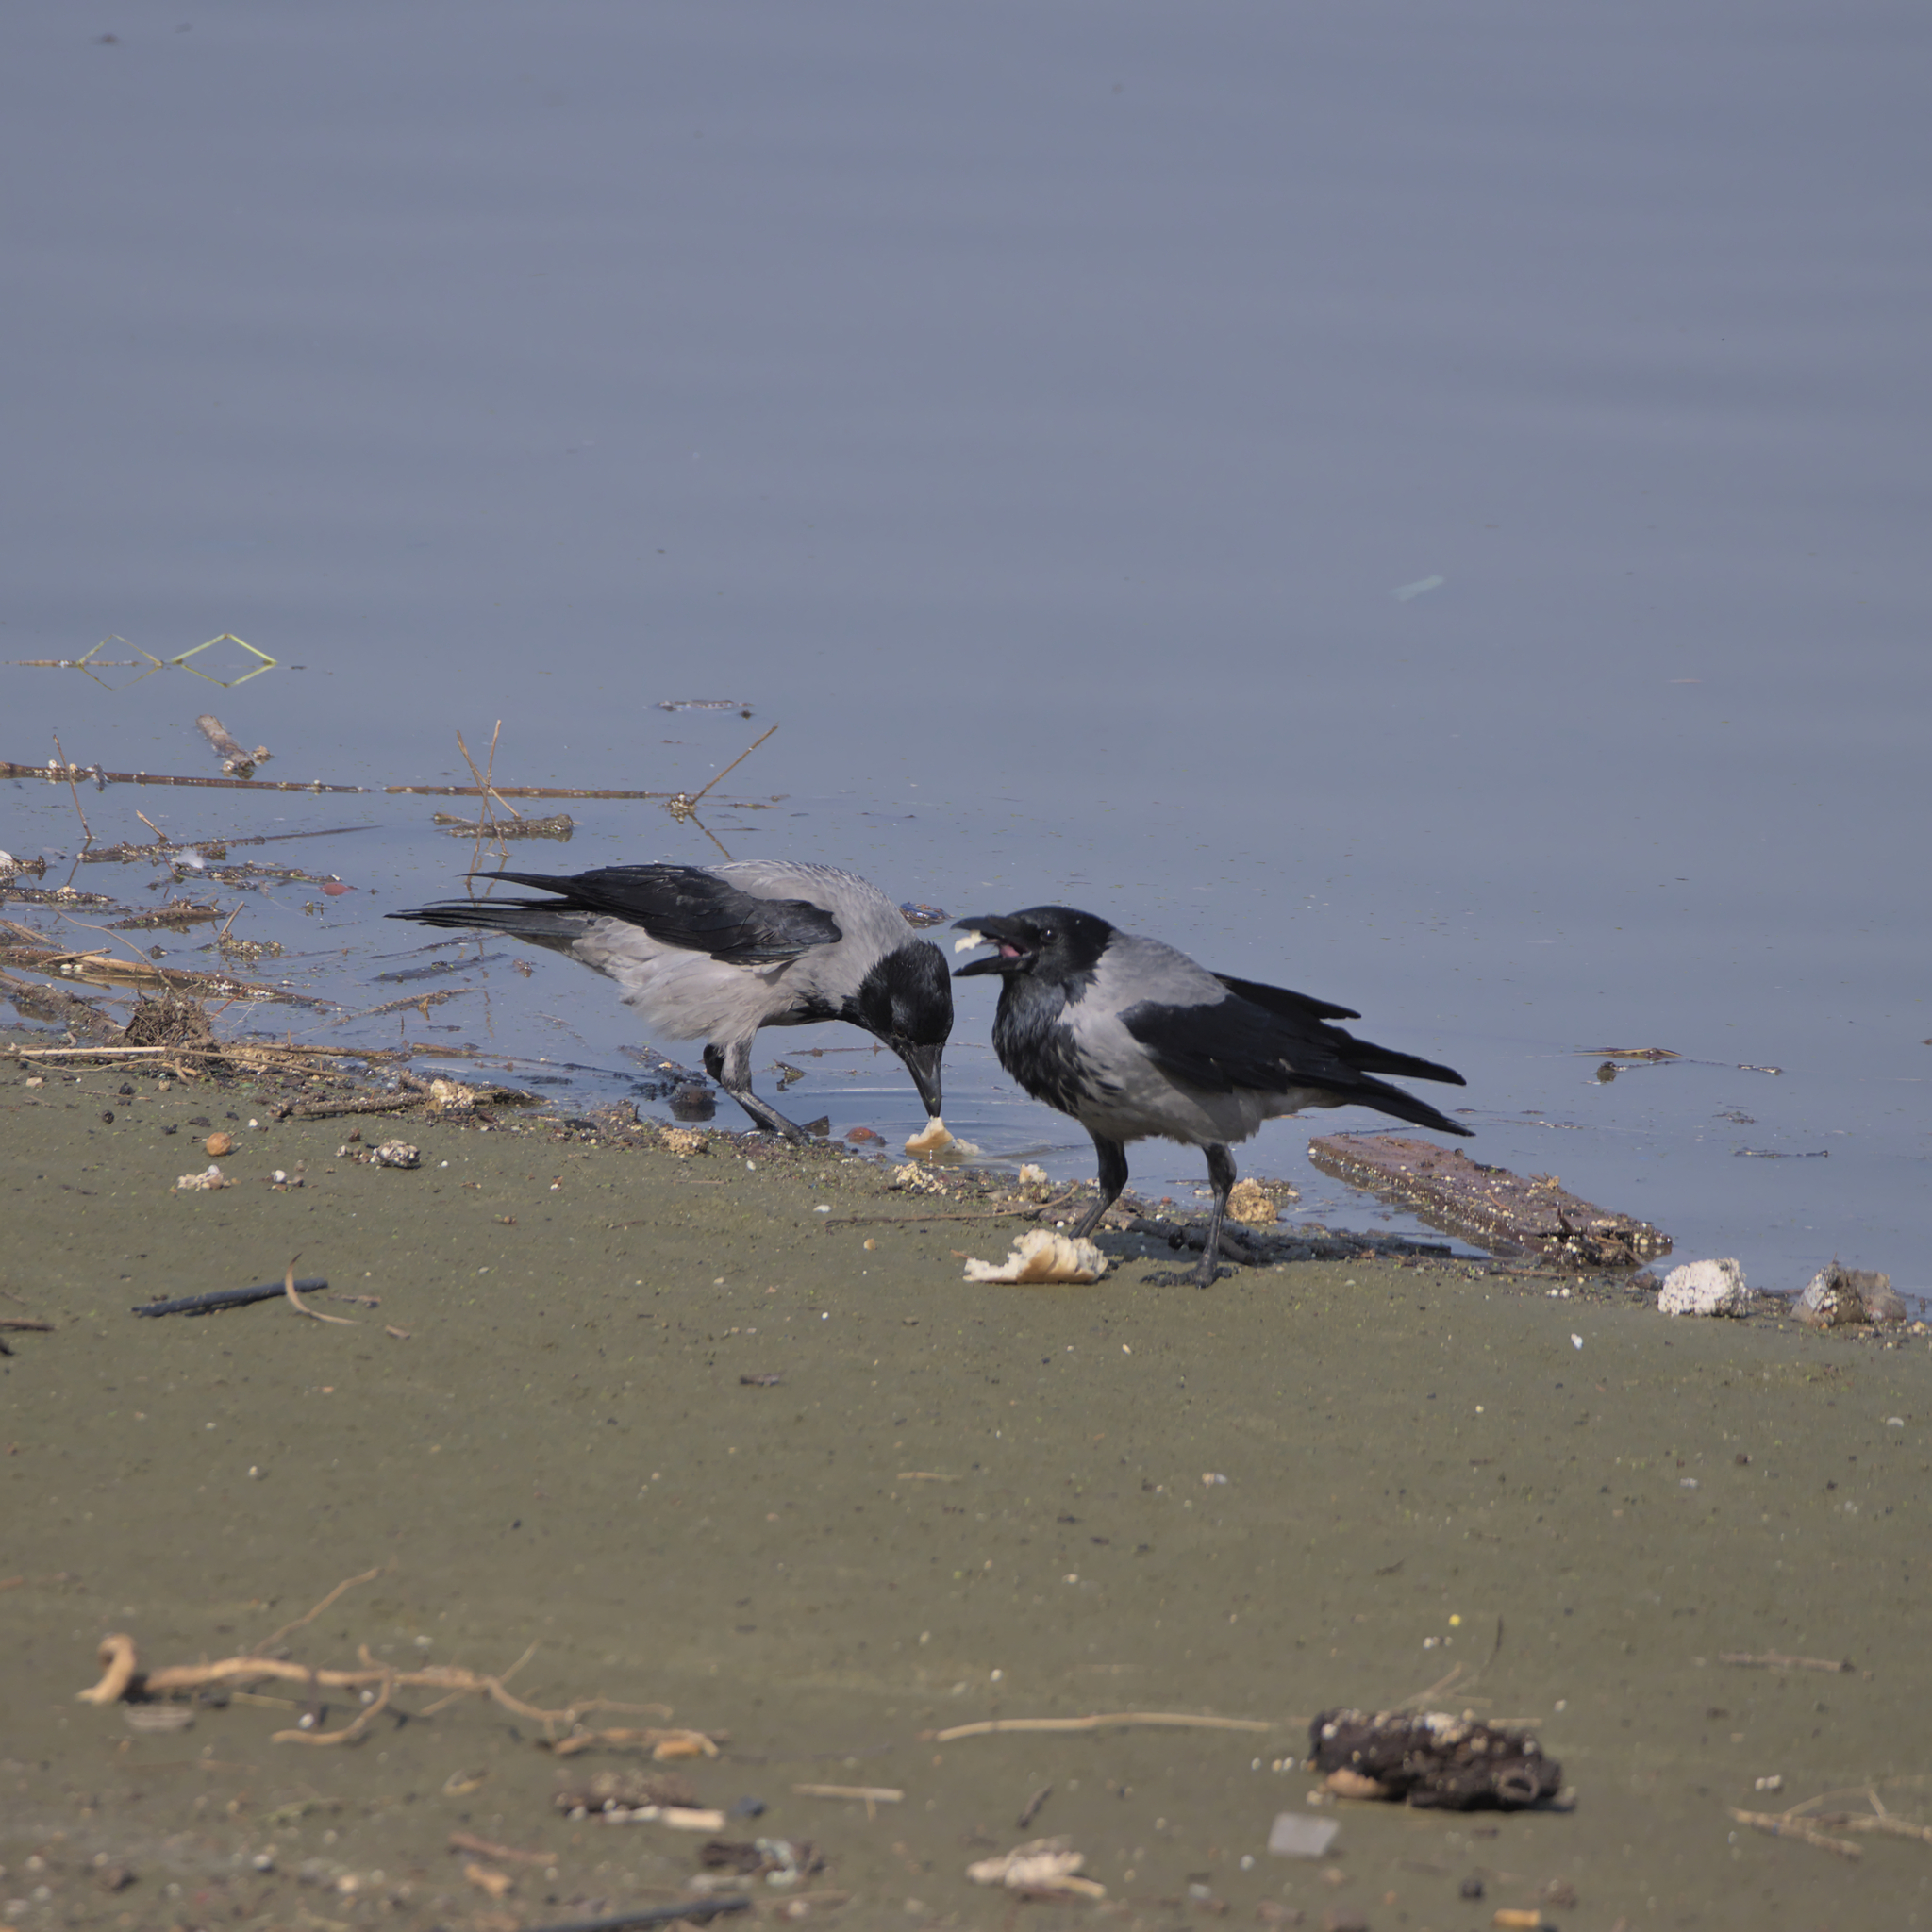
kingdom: Animalia
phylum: Chordata
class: Aves
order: Passeriformes
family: Corvidae
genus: Corvus
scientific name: Corvus cornix
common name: Hooded crow
